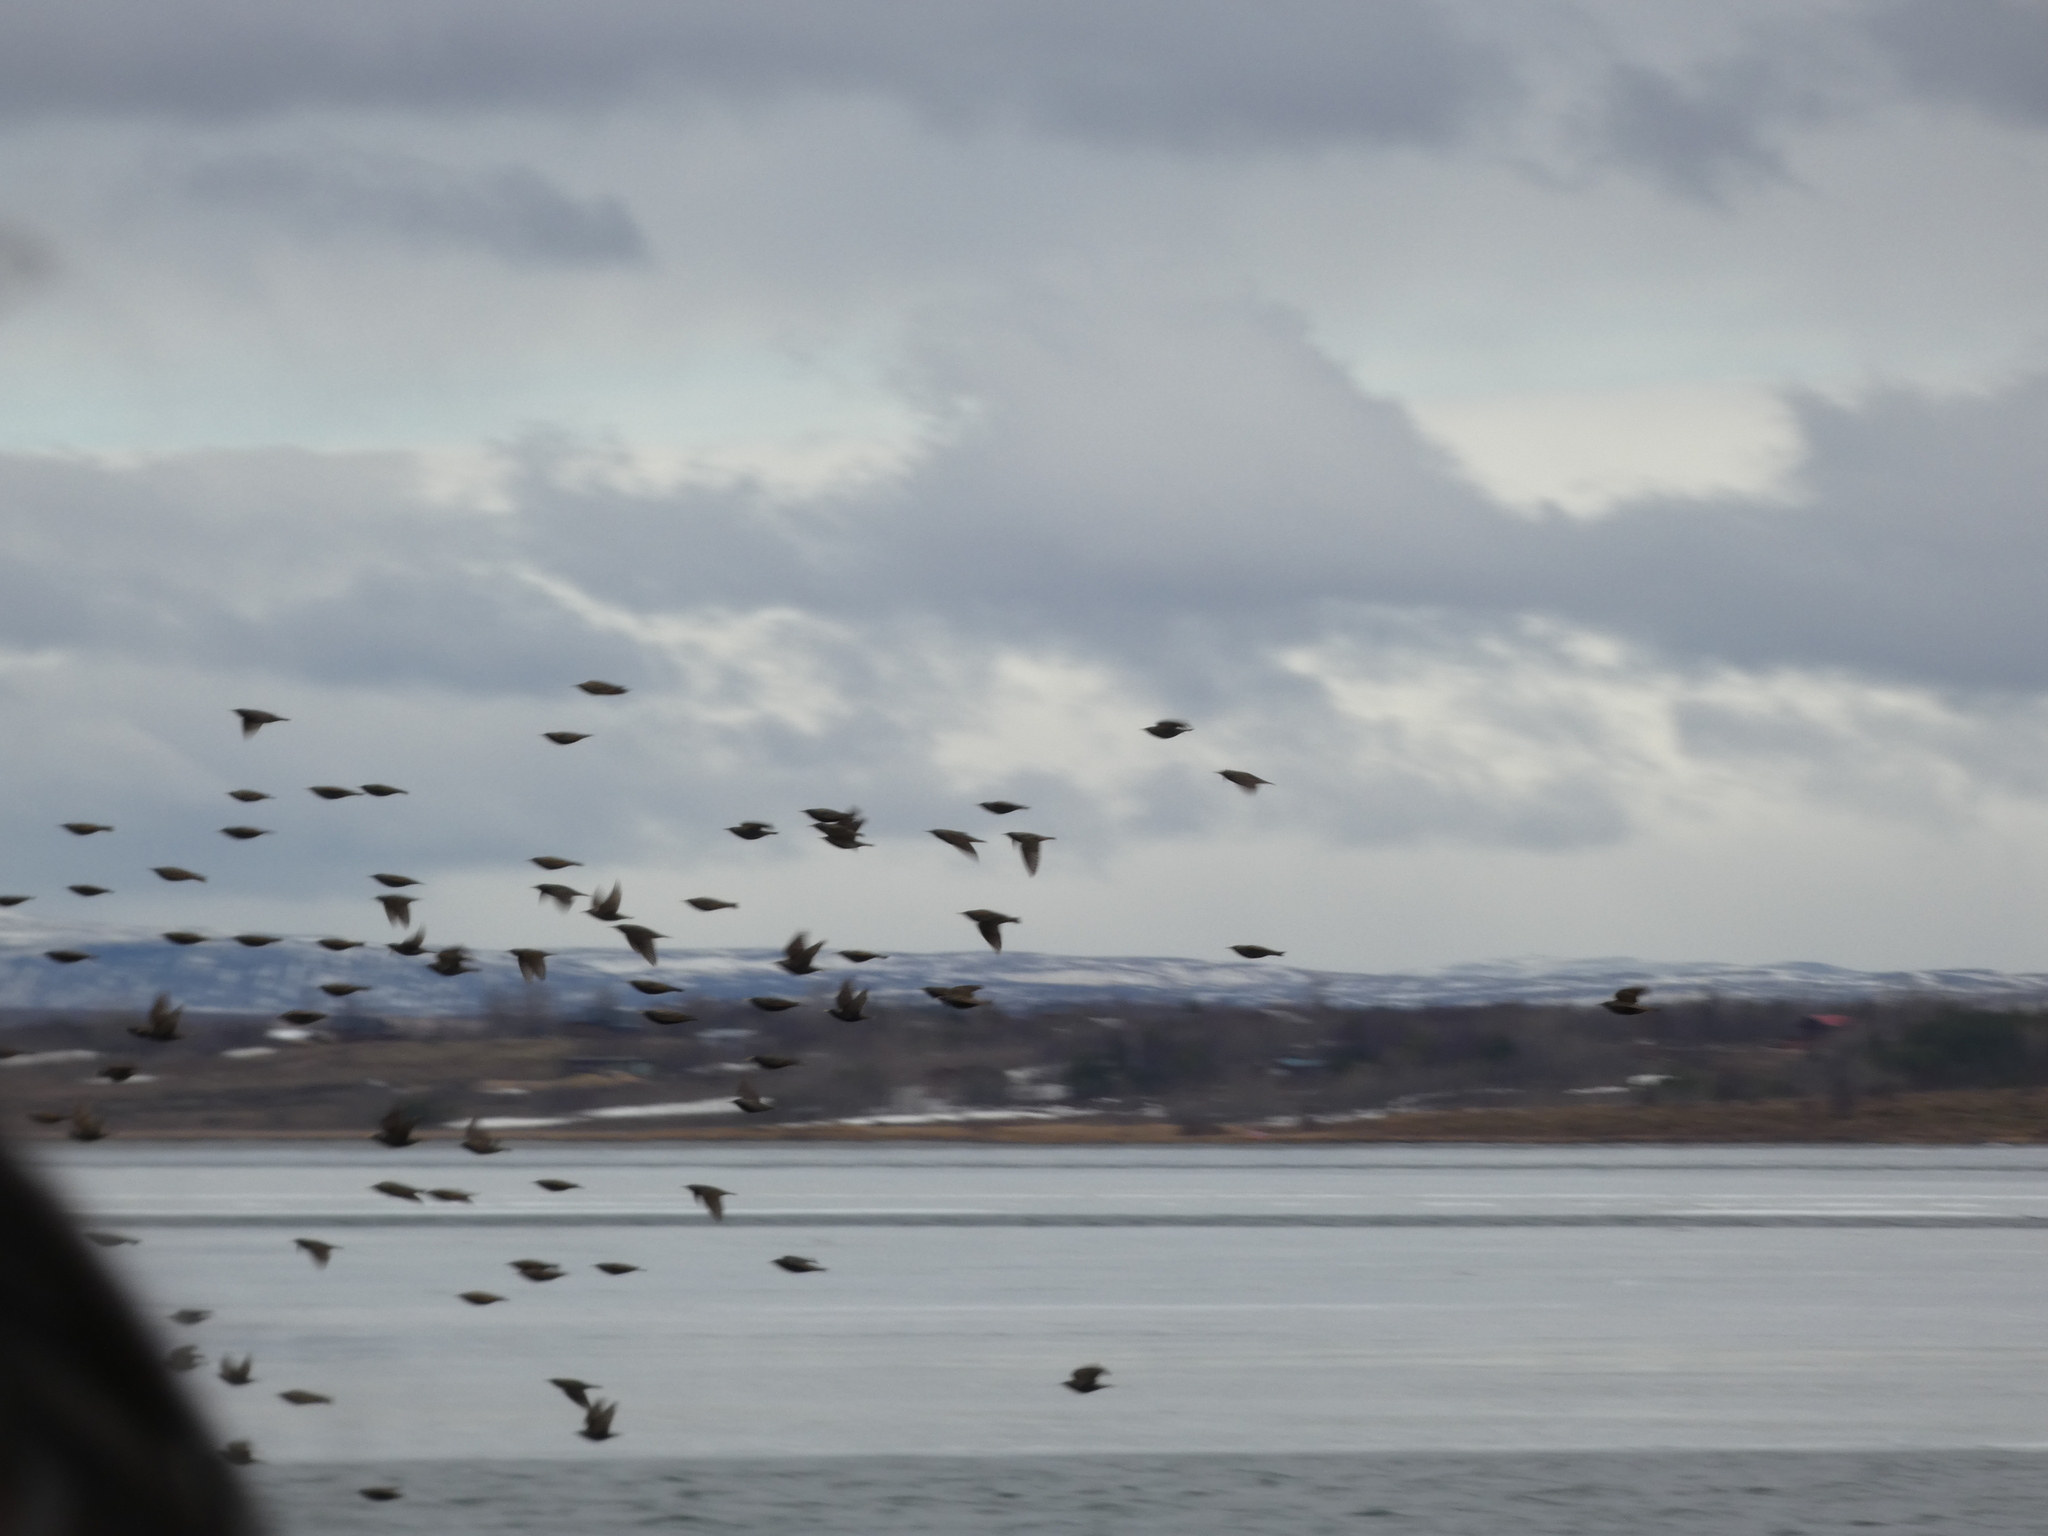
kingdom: Animalia
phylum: Chordata
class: Aves
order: Passeriformes
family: Sturnidae
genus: Sturnus
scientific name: Sturnus vulgaris
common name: Common starling
